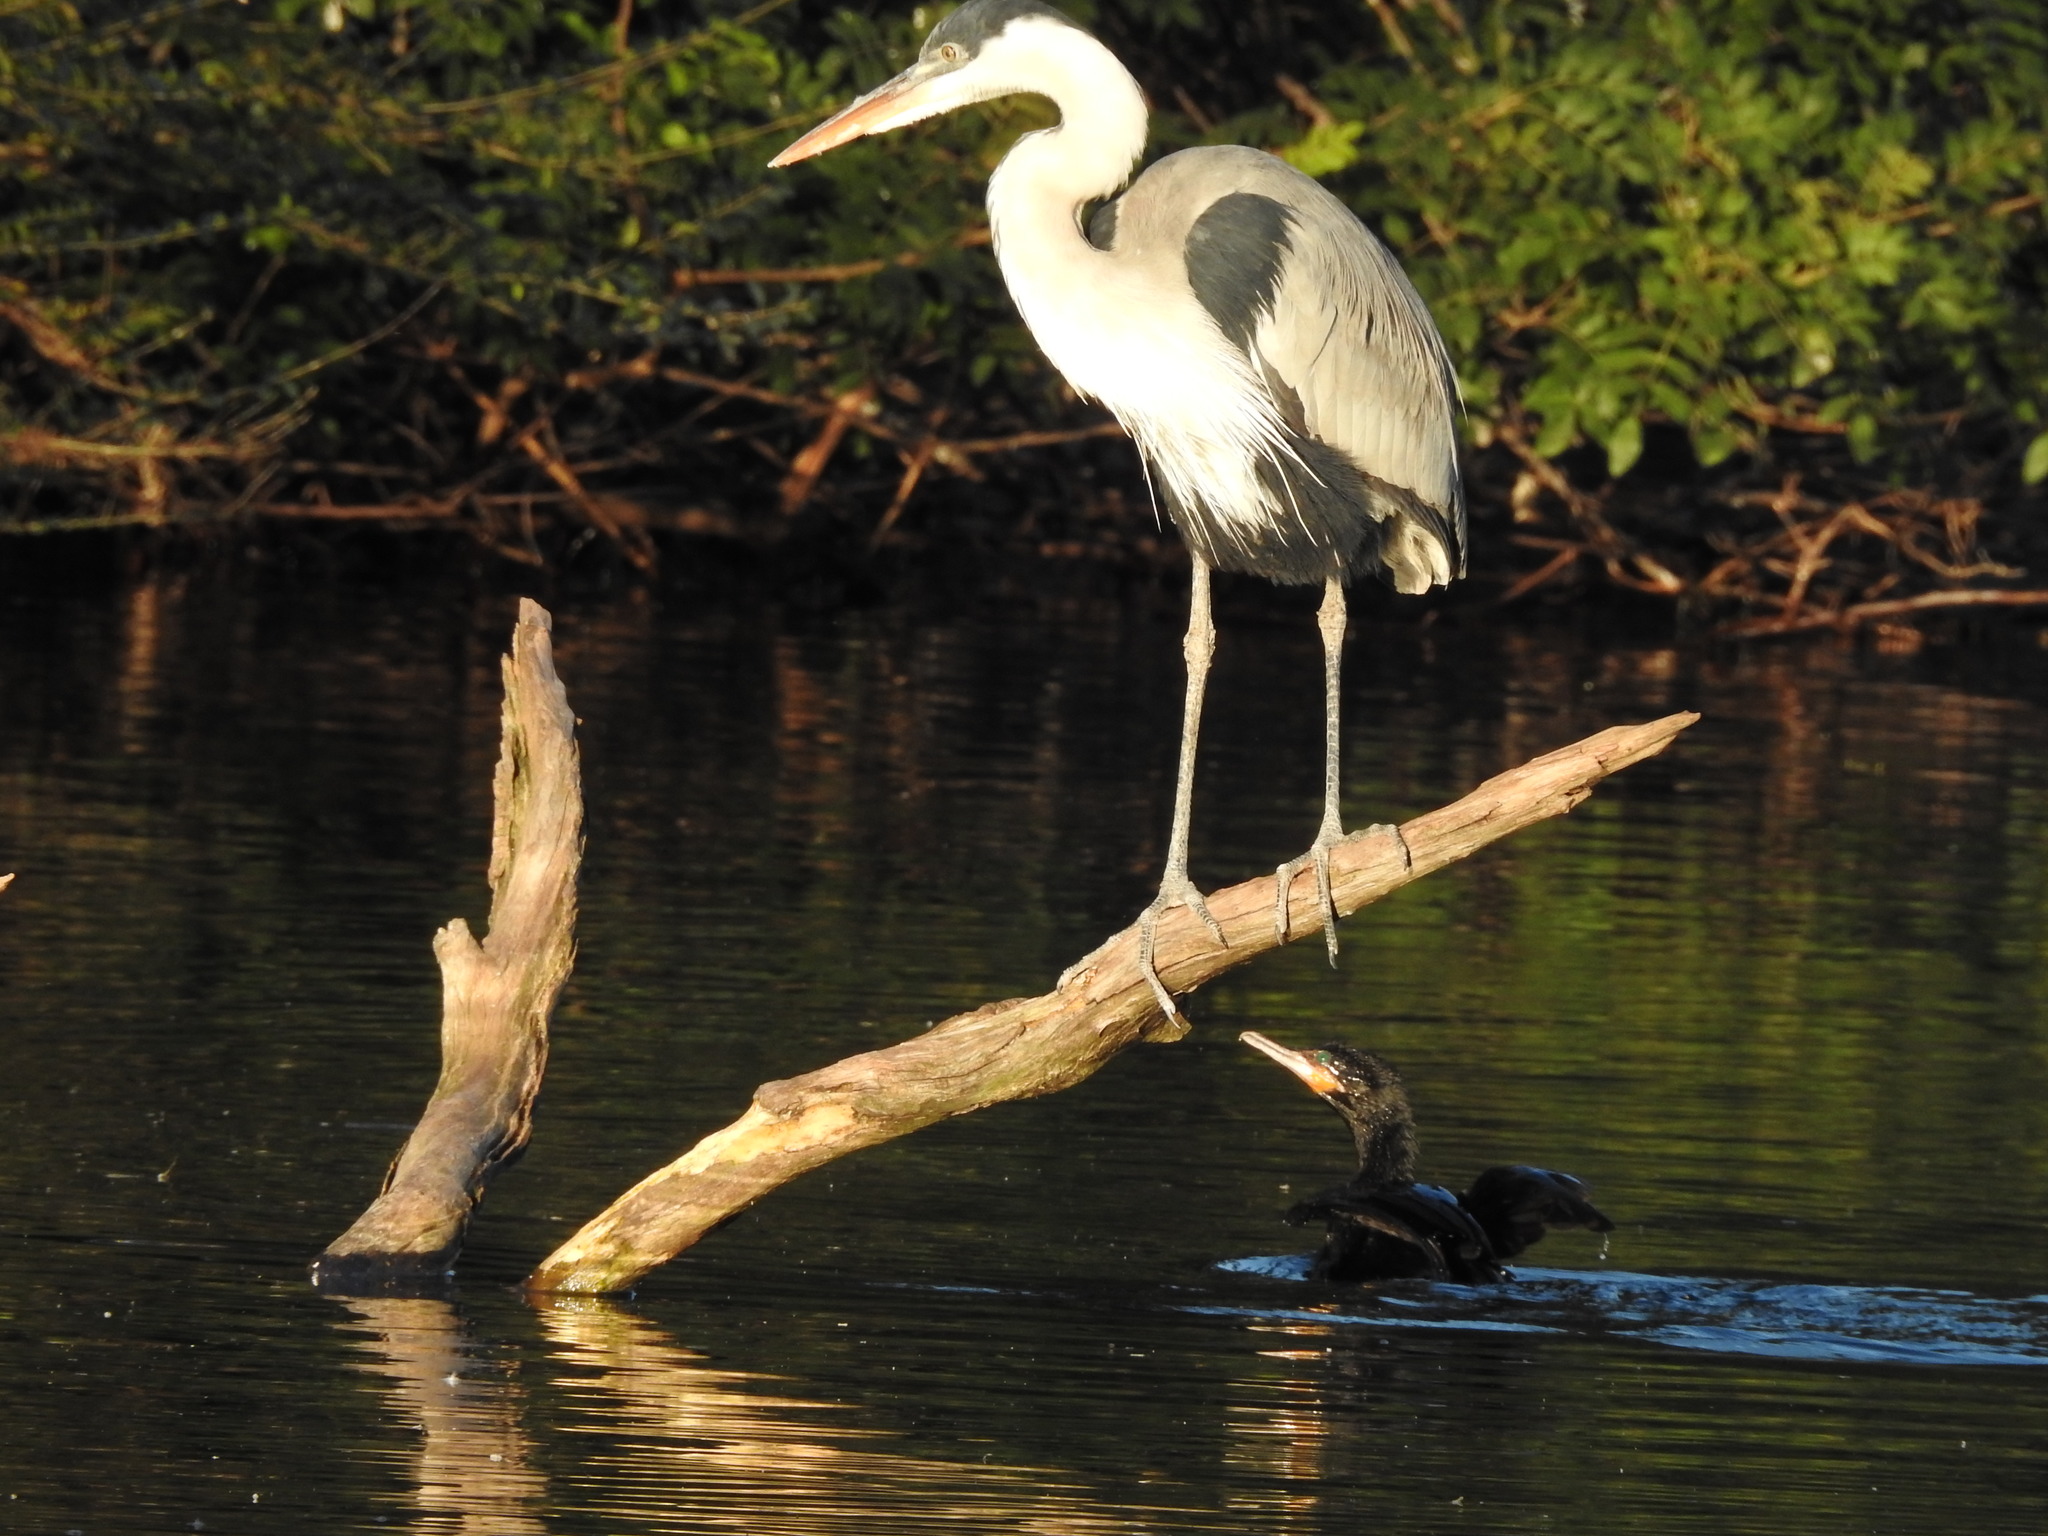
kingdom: Animalia
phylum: Chordata
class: Aves
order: Pelecaniformes
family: Ardeidae
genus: Ardea
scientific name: Ardea cocoi
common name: Cocoi heron
